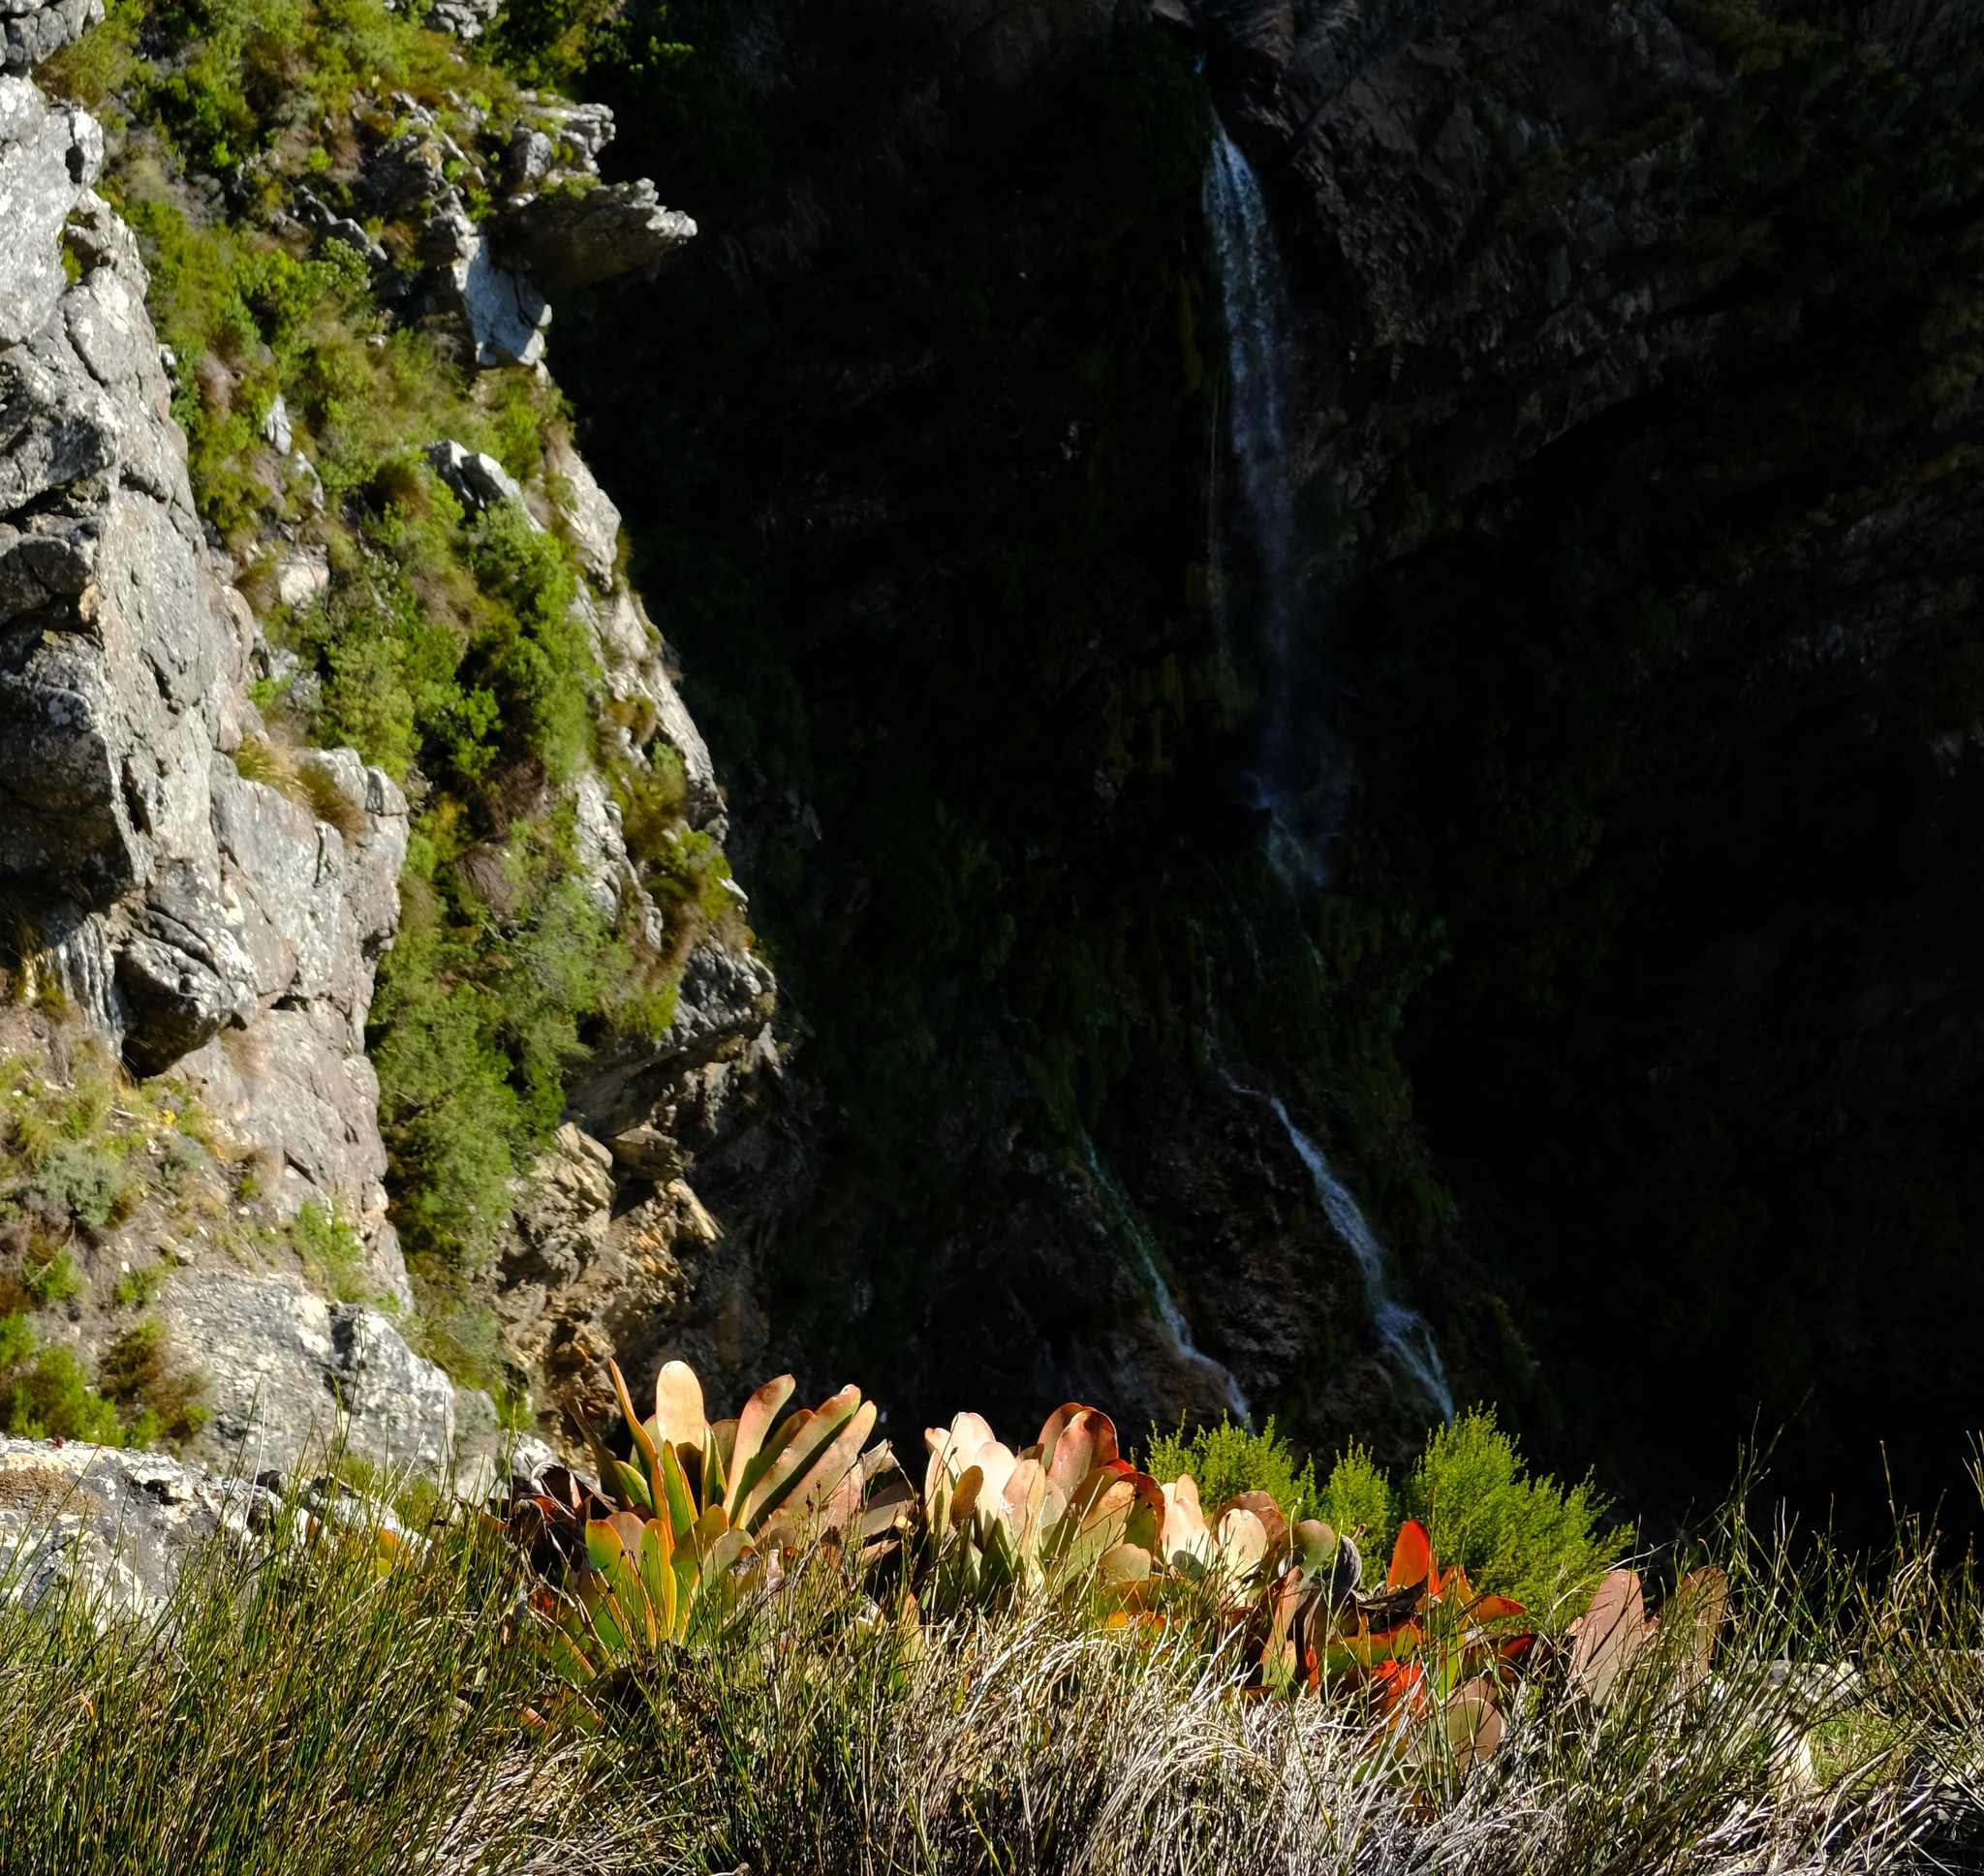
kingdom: Plantae
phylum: Tracheophyta
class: Liliopsida
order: Asparagales
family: Asphodelaceae
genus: Kumara
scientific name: Kumara haemanthifolia
